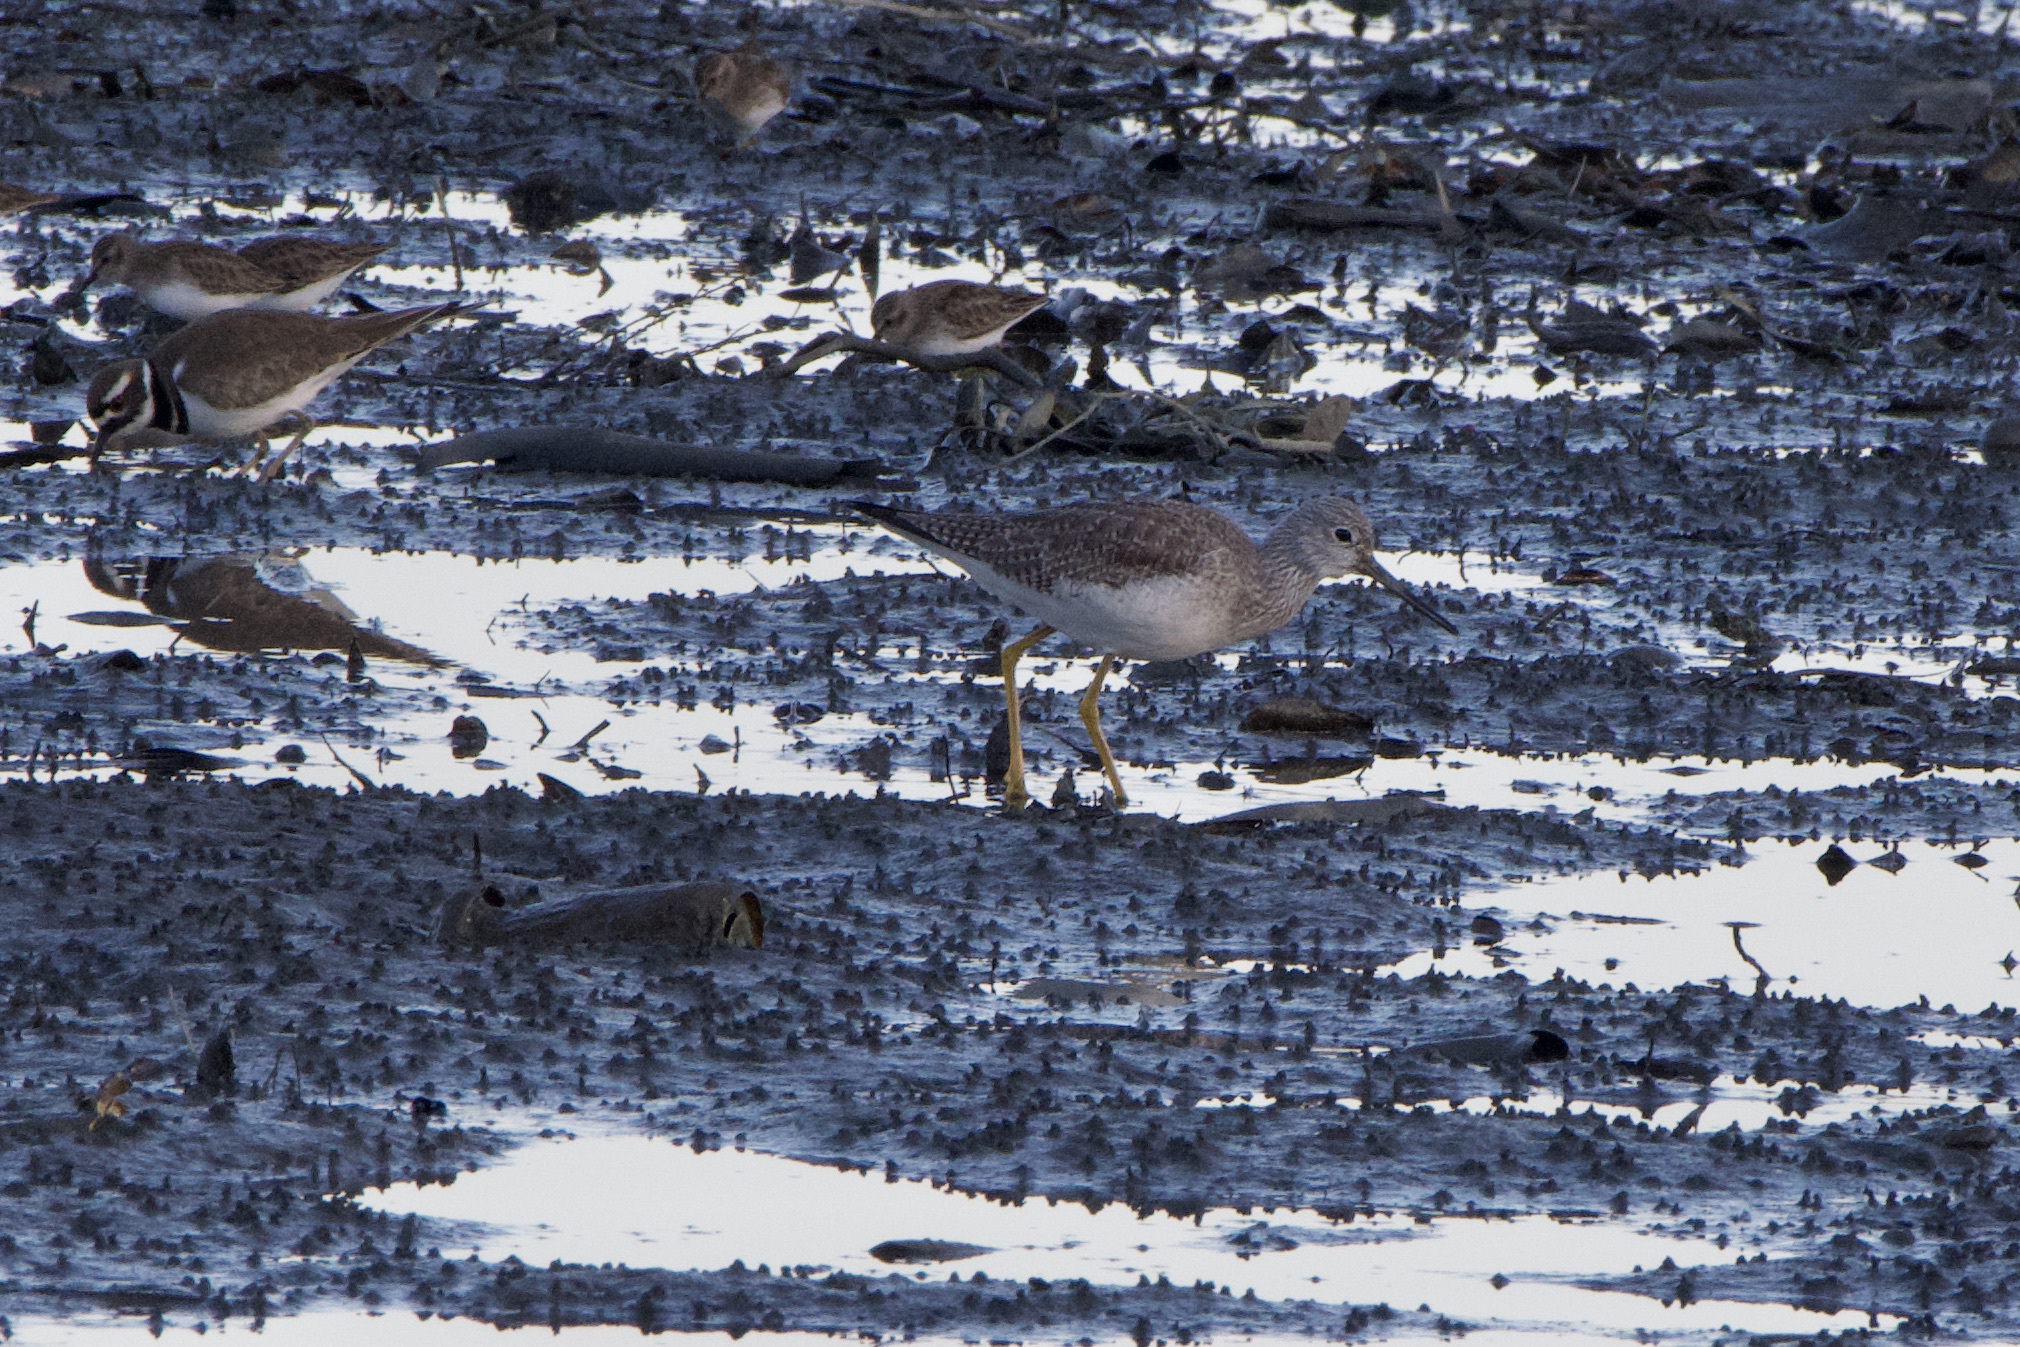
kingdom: Animalia
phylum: Chordata
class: Aves
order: Charadriiformes
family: Scolopacidae
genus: Tringa
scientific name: Tringa melanoleuca
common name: Greater yellowlegs
